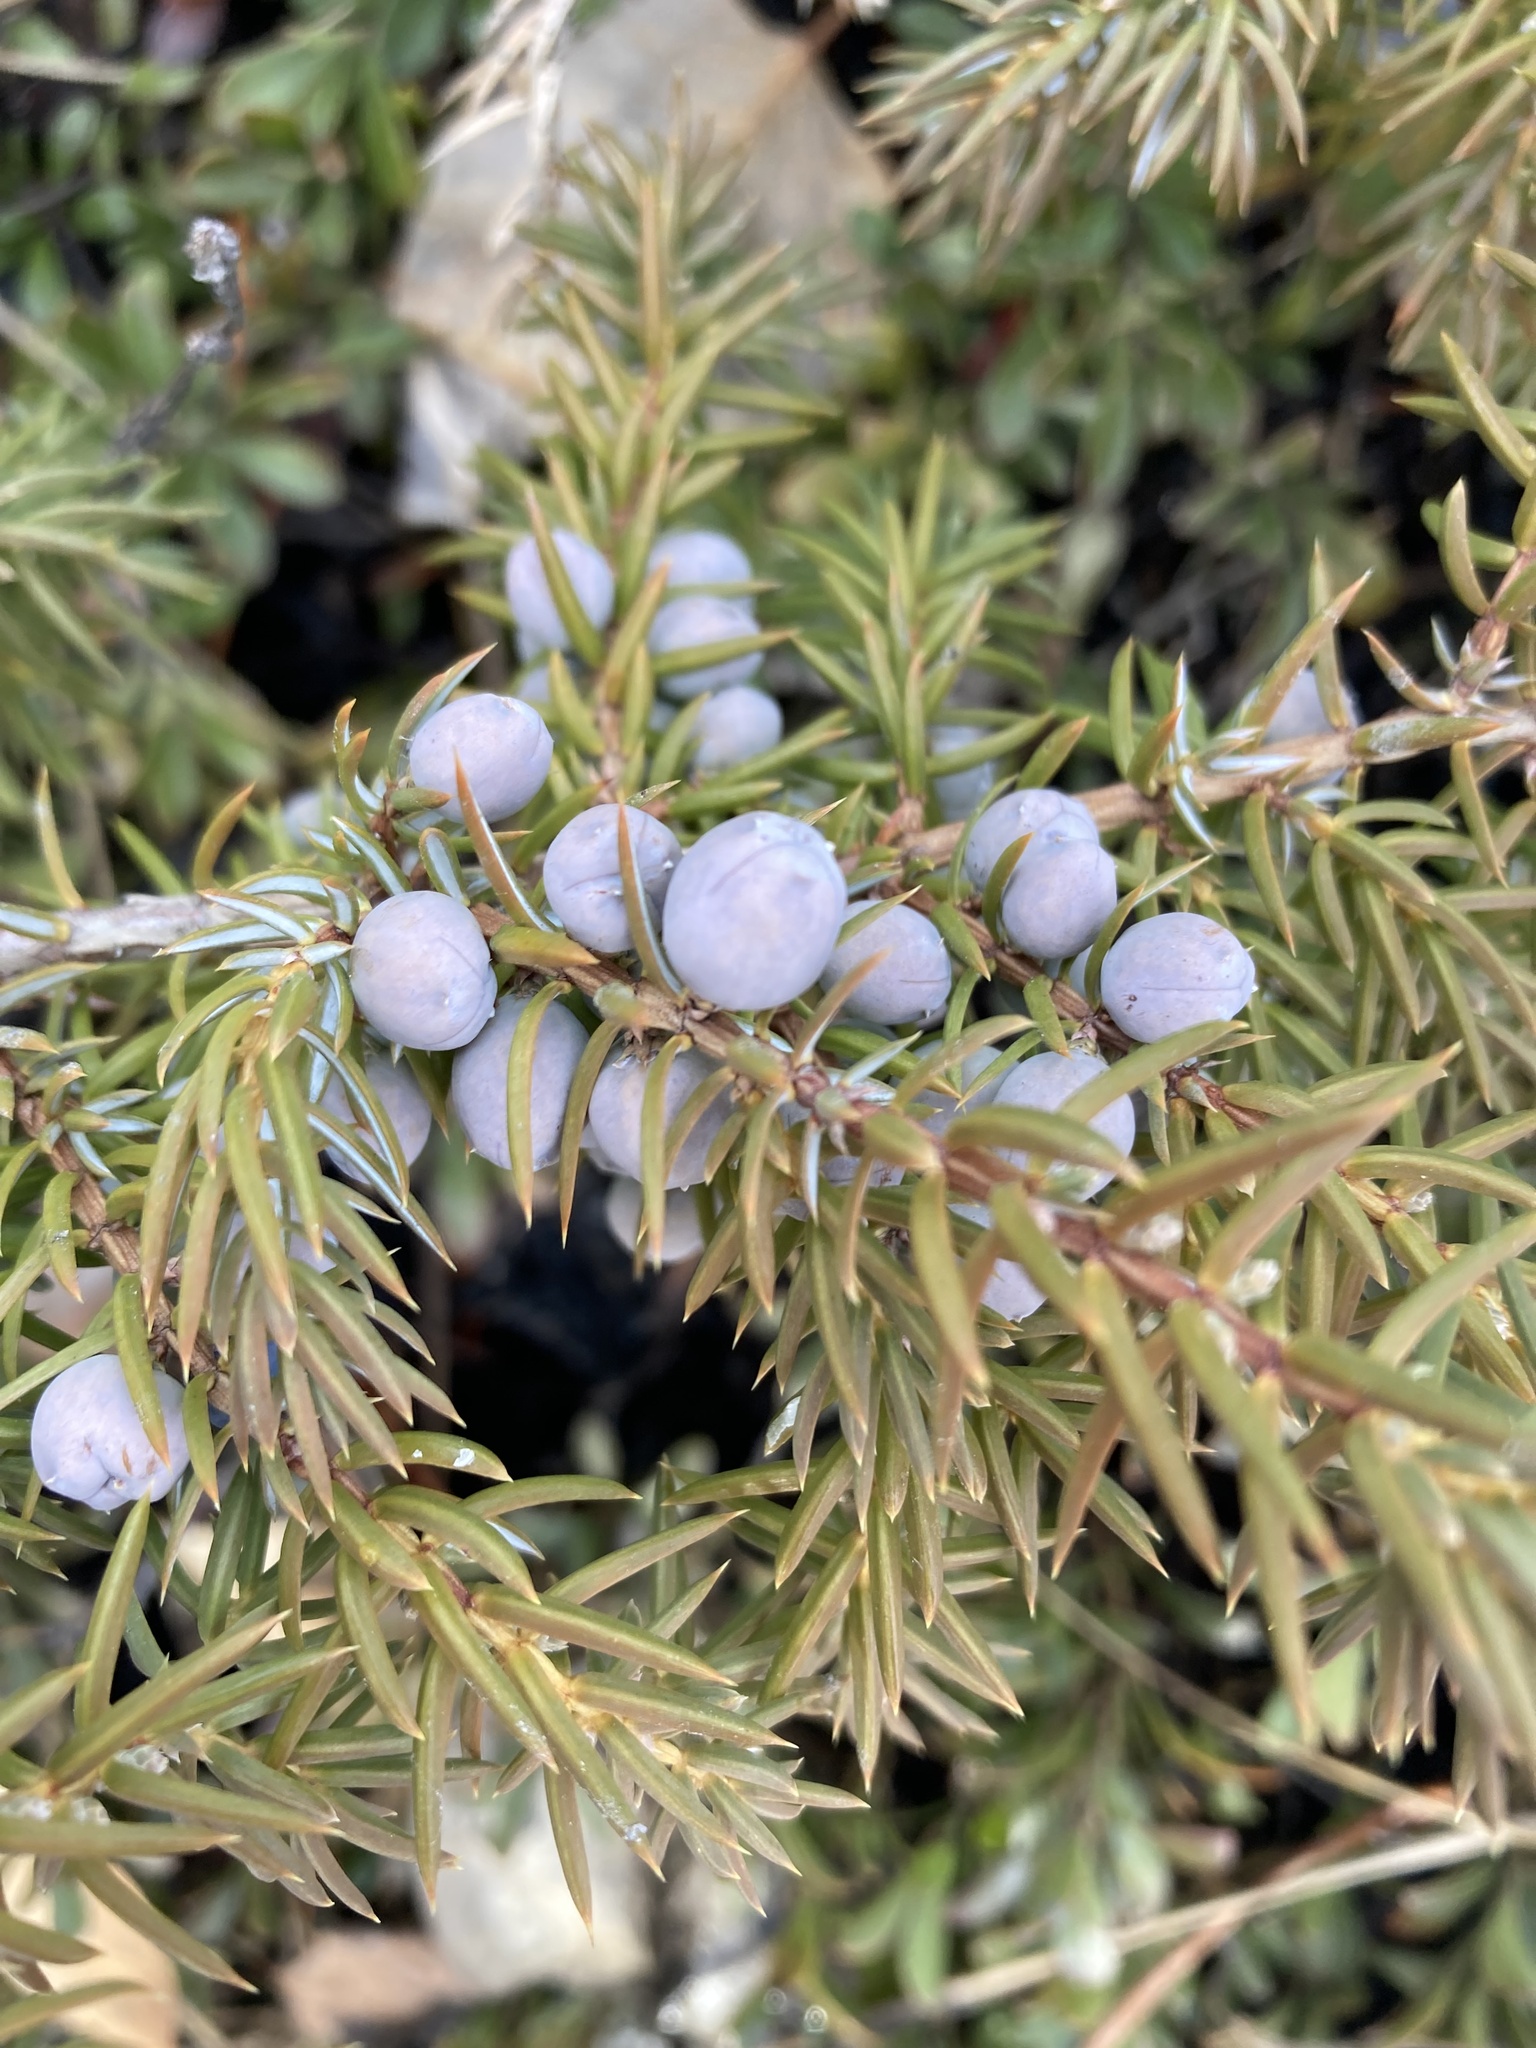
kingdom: Plantae
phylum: Tracheophyta
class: Pinopsida
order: Pinales
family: Cupressaceae
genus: Juniperus
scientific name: Juniperus communis
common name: Common juniper
